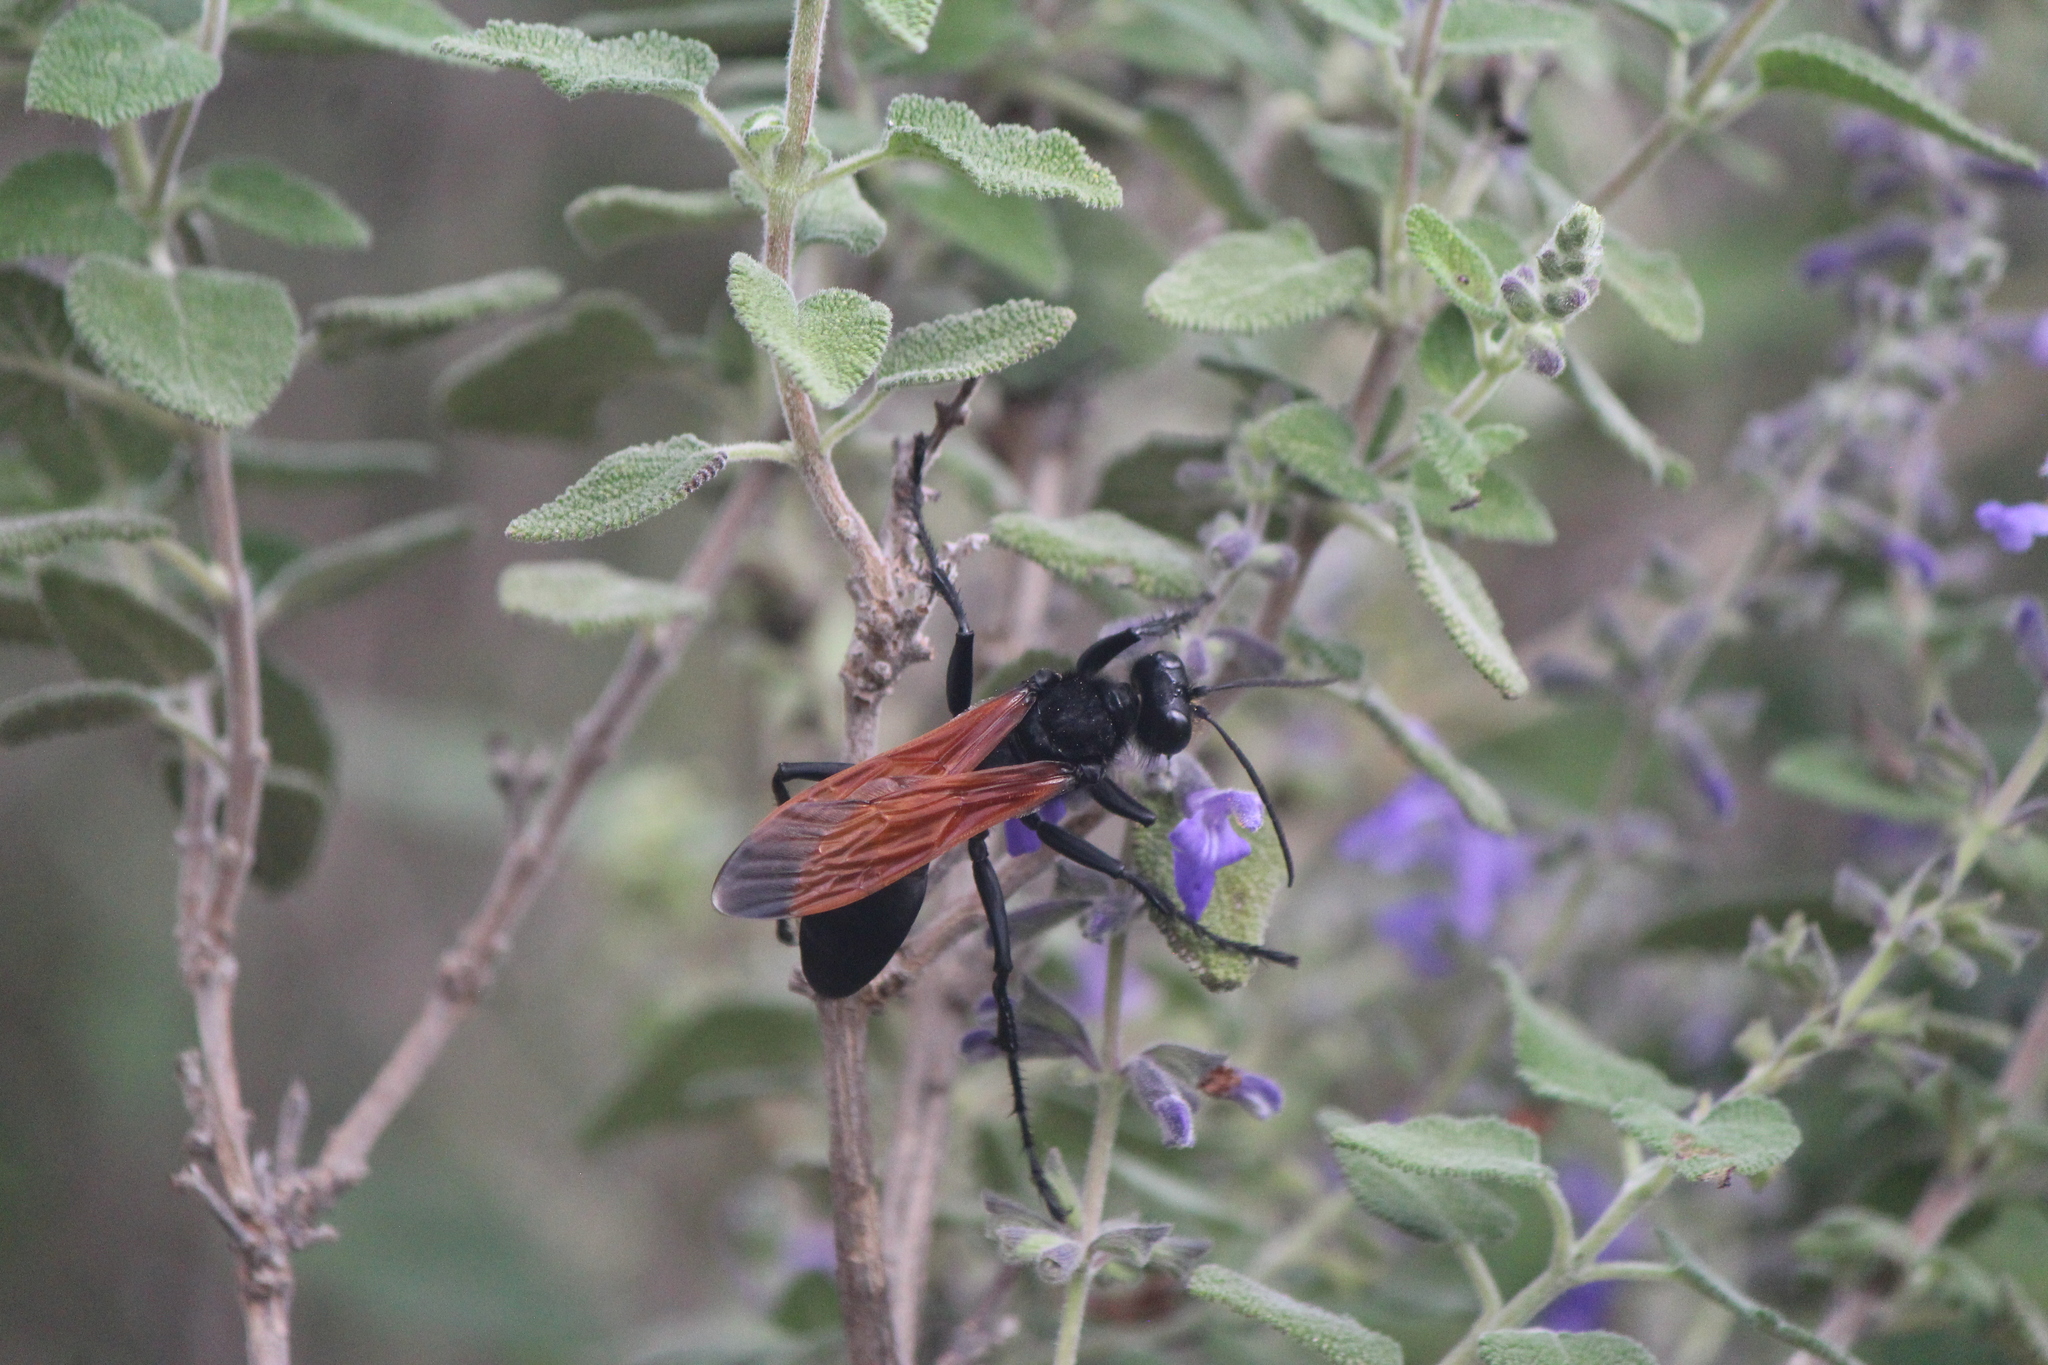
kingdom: Animalia
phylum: Arthropoda
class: Insecta
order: Hymenoptera
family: Sphecidae
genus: Sphex
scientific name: Sphex tepanecus
